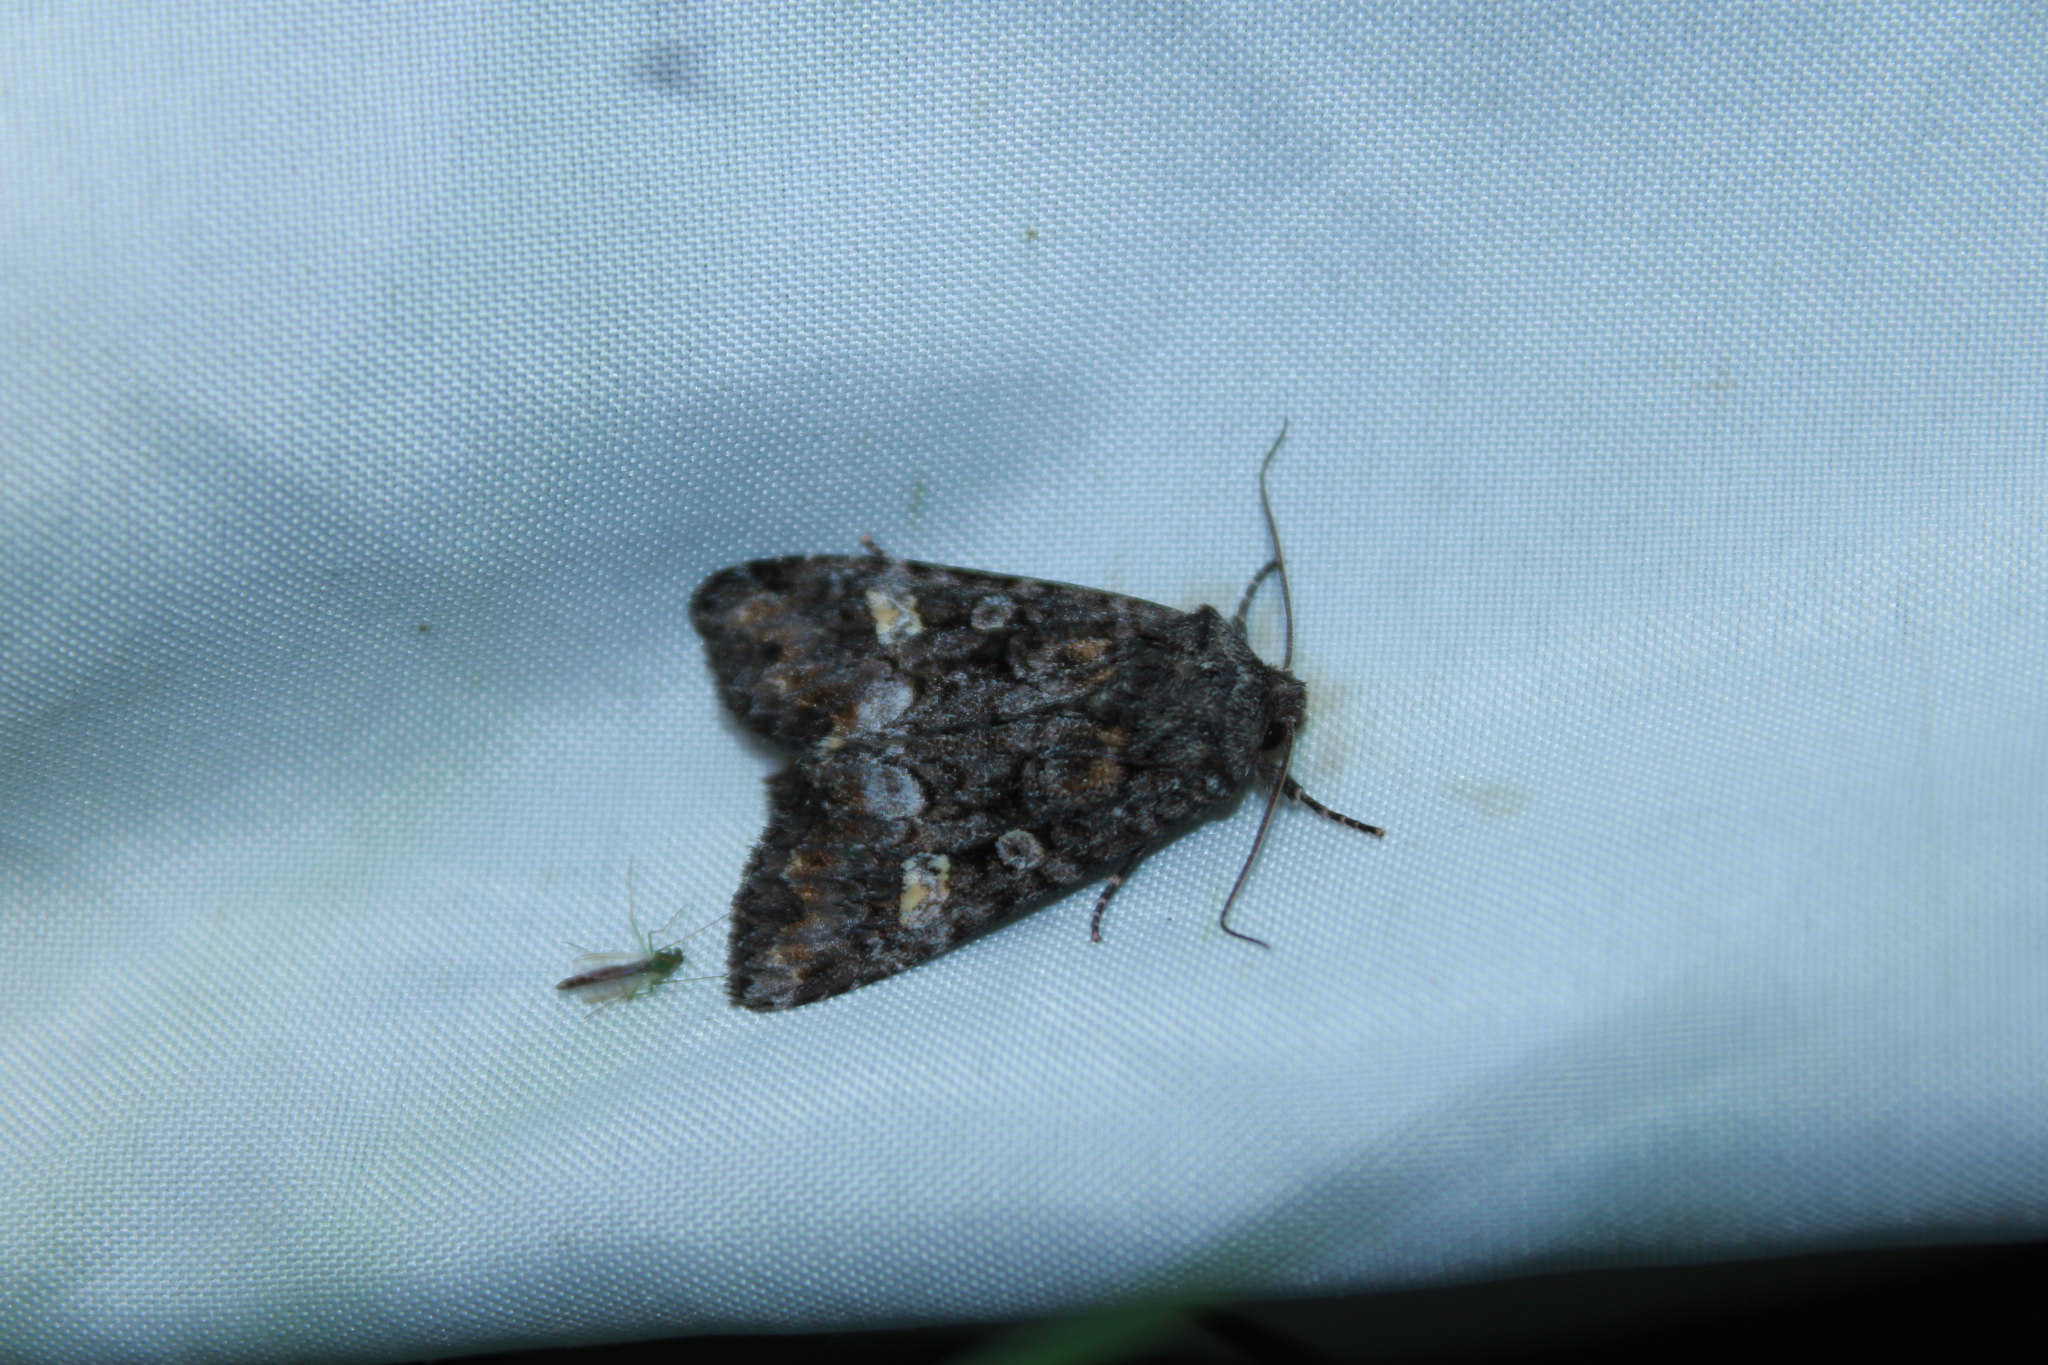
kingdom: Animalia
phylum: Arthropoda
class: Insecta
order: Lepidoptera
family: Noctuidae
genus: Spiramater
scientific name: Spiramater lutra
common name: Otter spiramater moth
